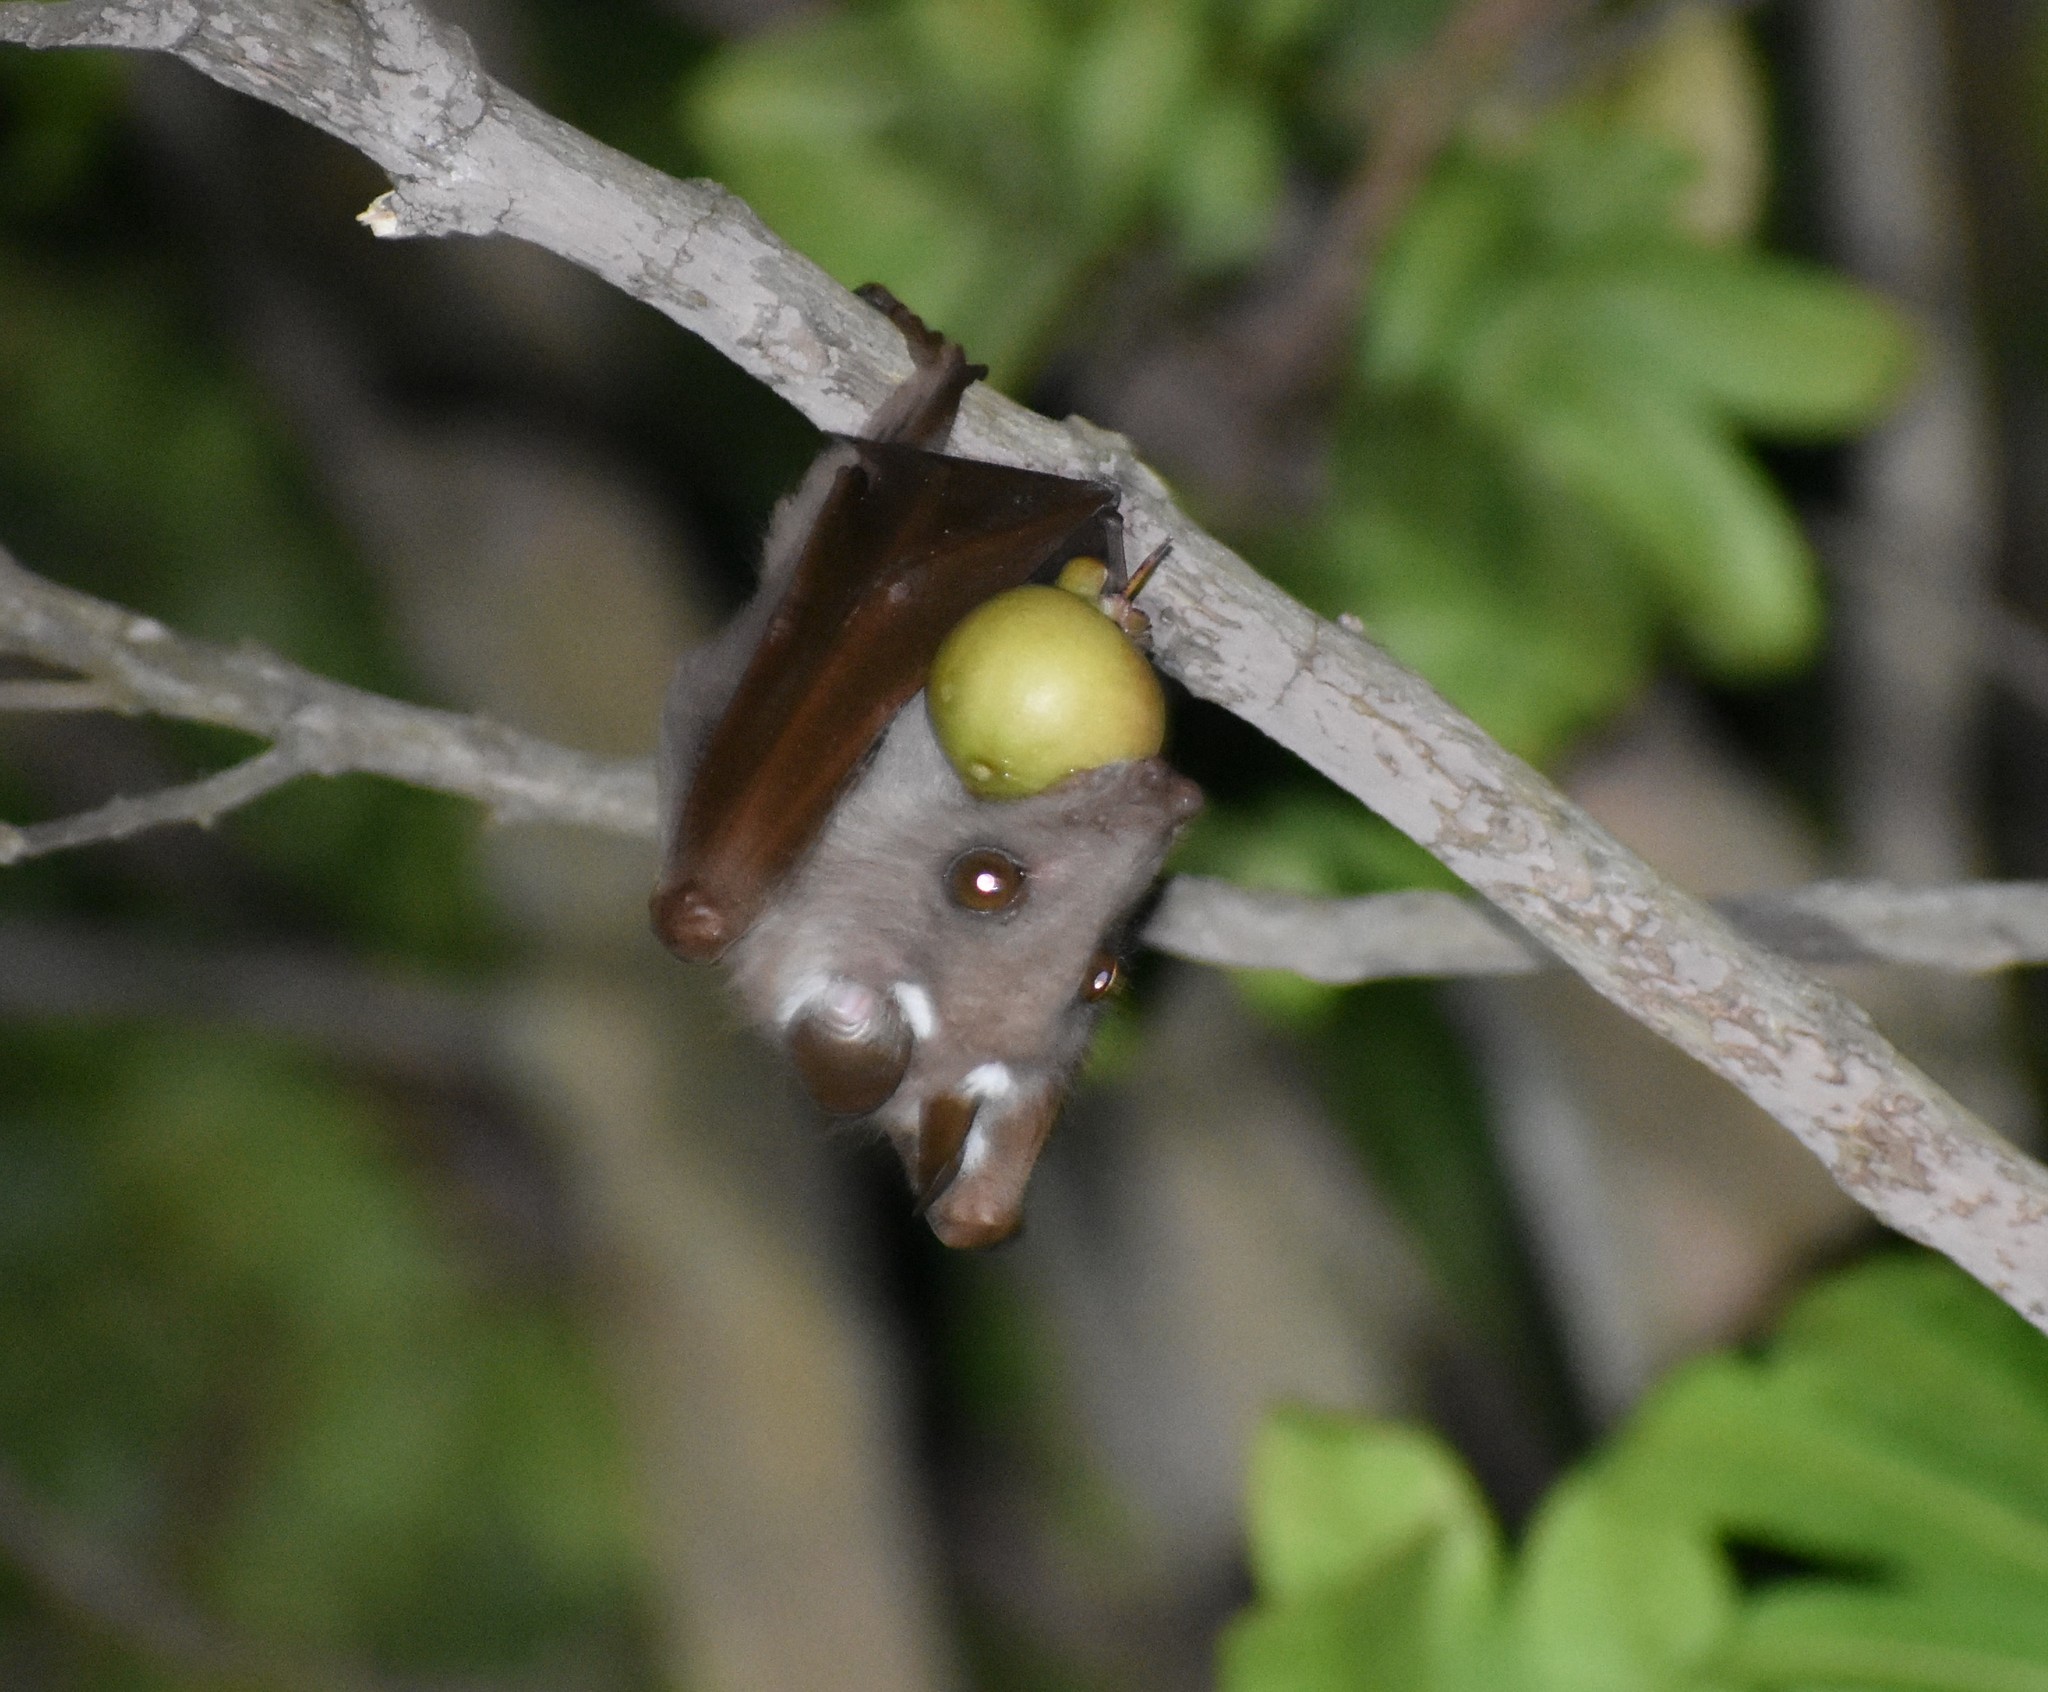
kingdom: Animalia
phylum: Chordata
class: Mammalia
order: Chiroptera
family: Pteropodidae
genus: Epomophorus
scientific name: Epomophorus wahlbergi
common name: Wahlberg's epauletted fruit bat
